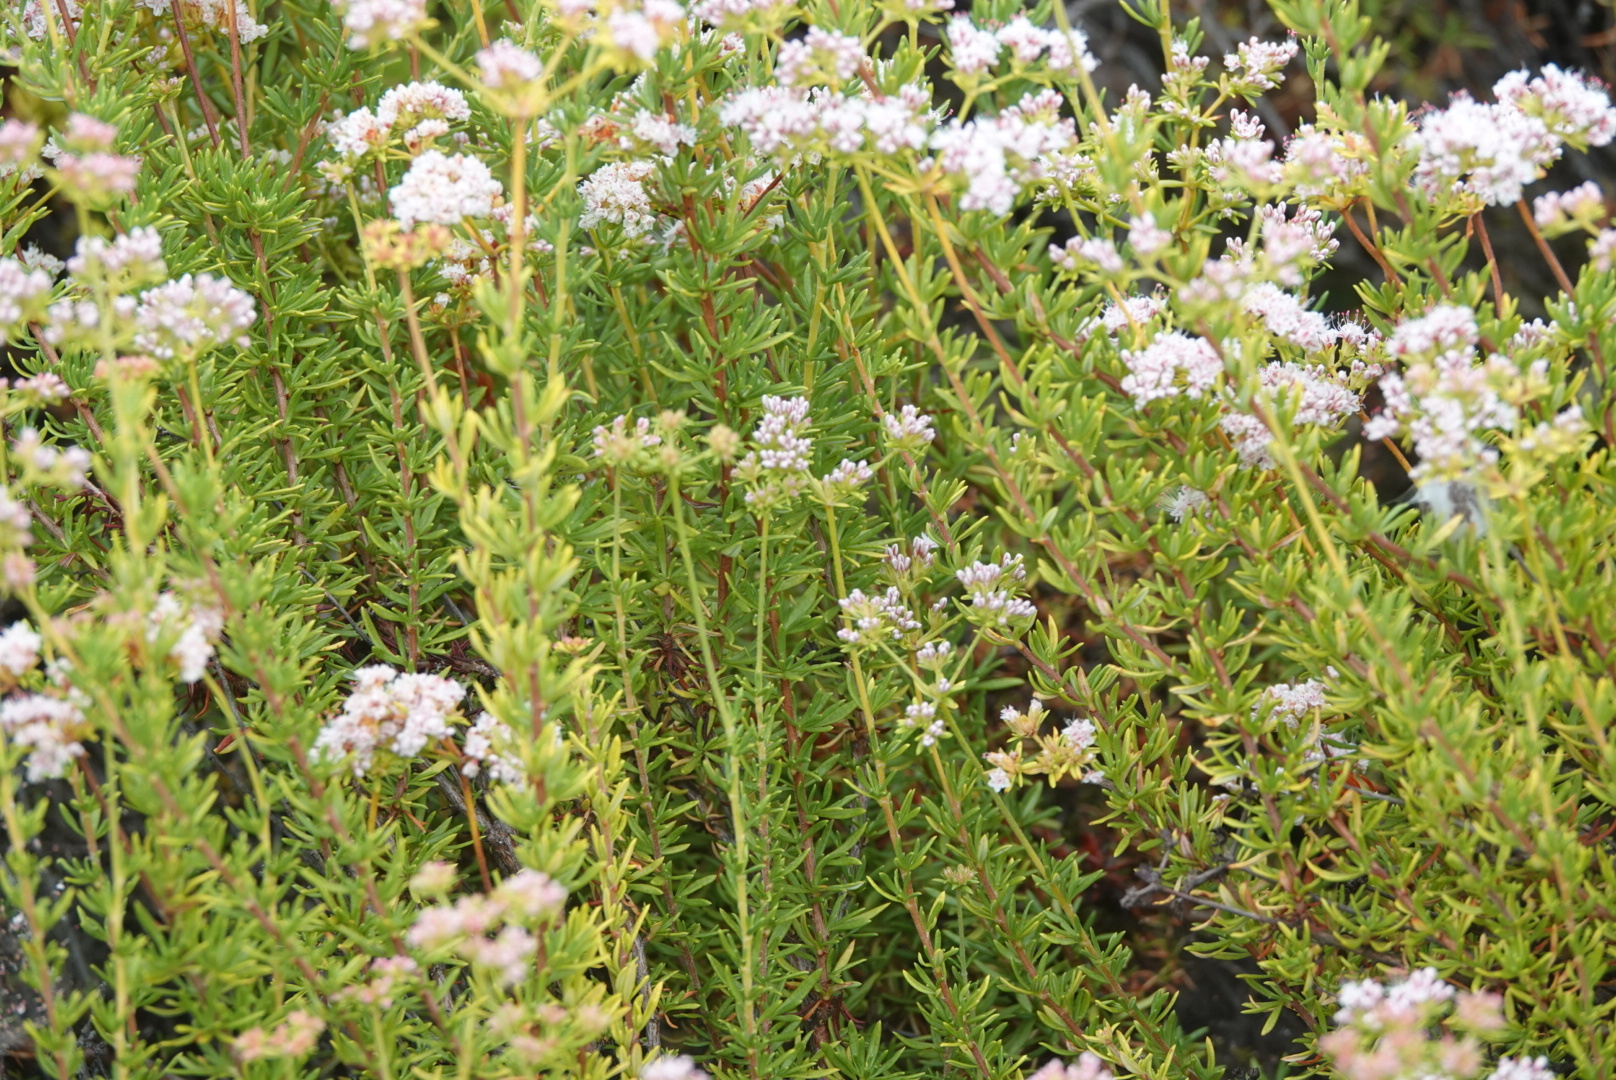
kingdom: Plantae
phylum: Tracheophyta
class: Magnoliopsida
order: Caryophyllales
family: Polygonaceae
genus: Eriogonum
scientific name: Eriogonum fasciculatum
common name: California wild buckwheat
